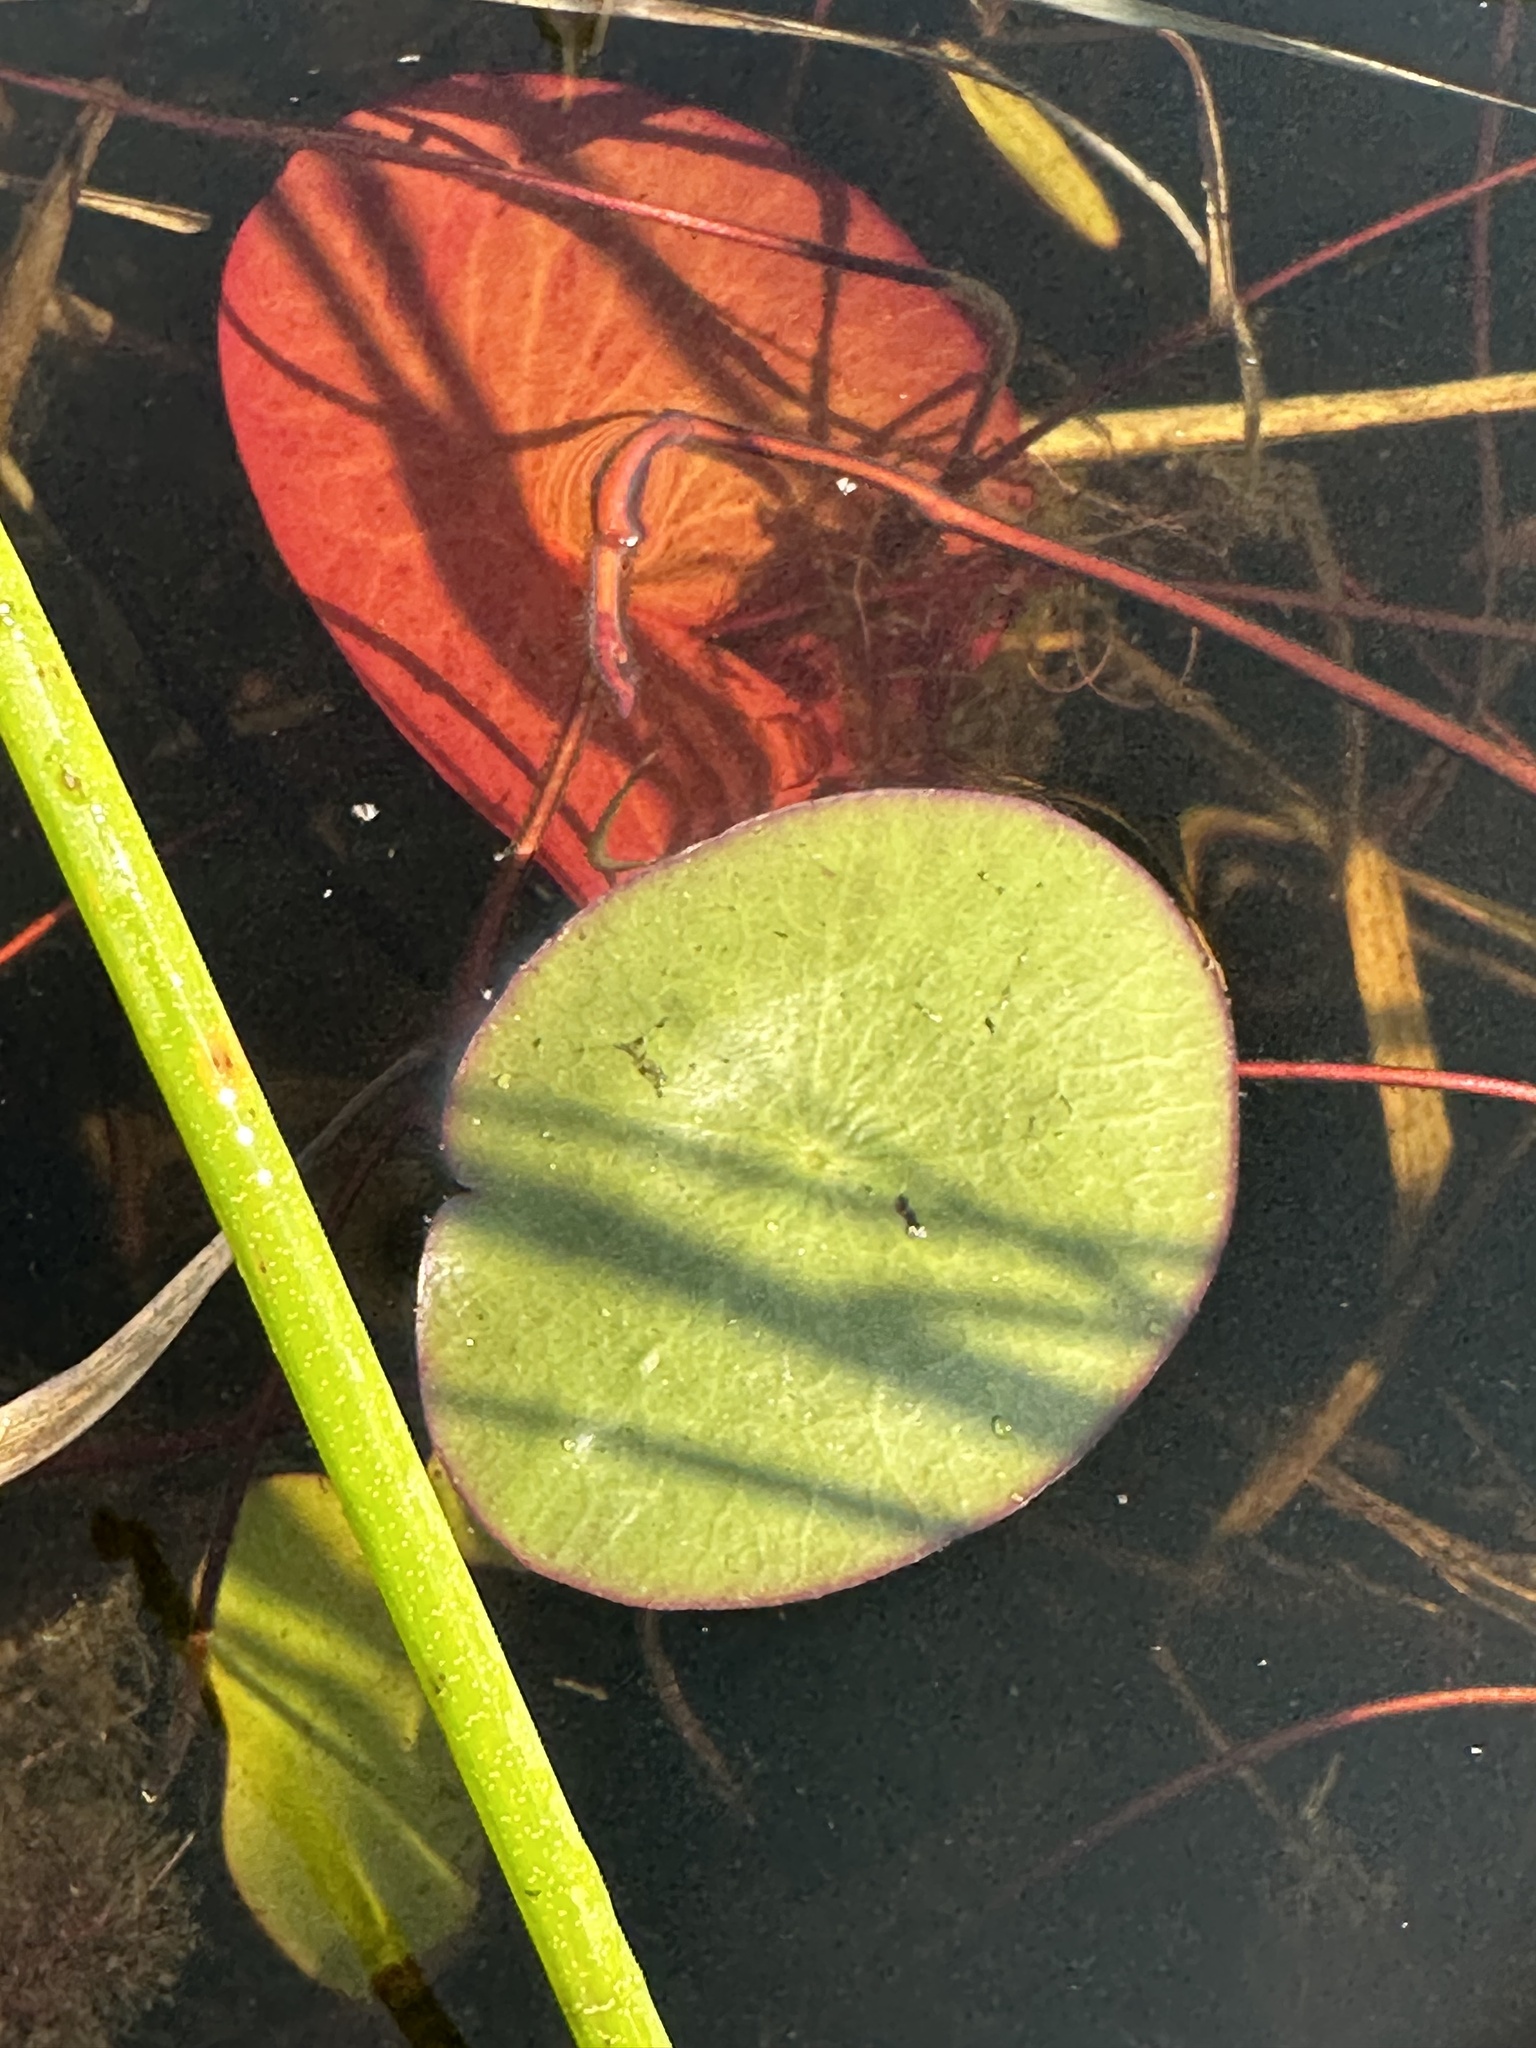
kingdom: Plantae
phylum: Tracheophyta
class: Magnoliopsida
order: Nymphaeales
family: Cabombaceae
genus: Brasenia
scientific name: Brasenia schreberi
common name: Water-shield
